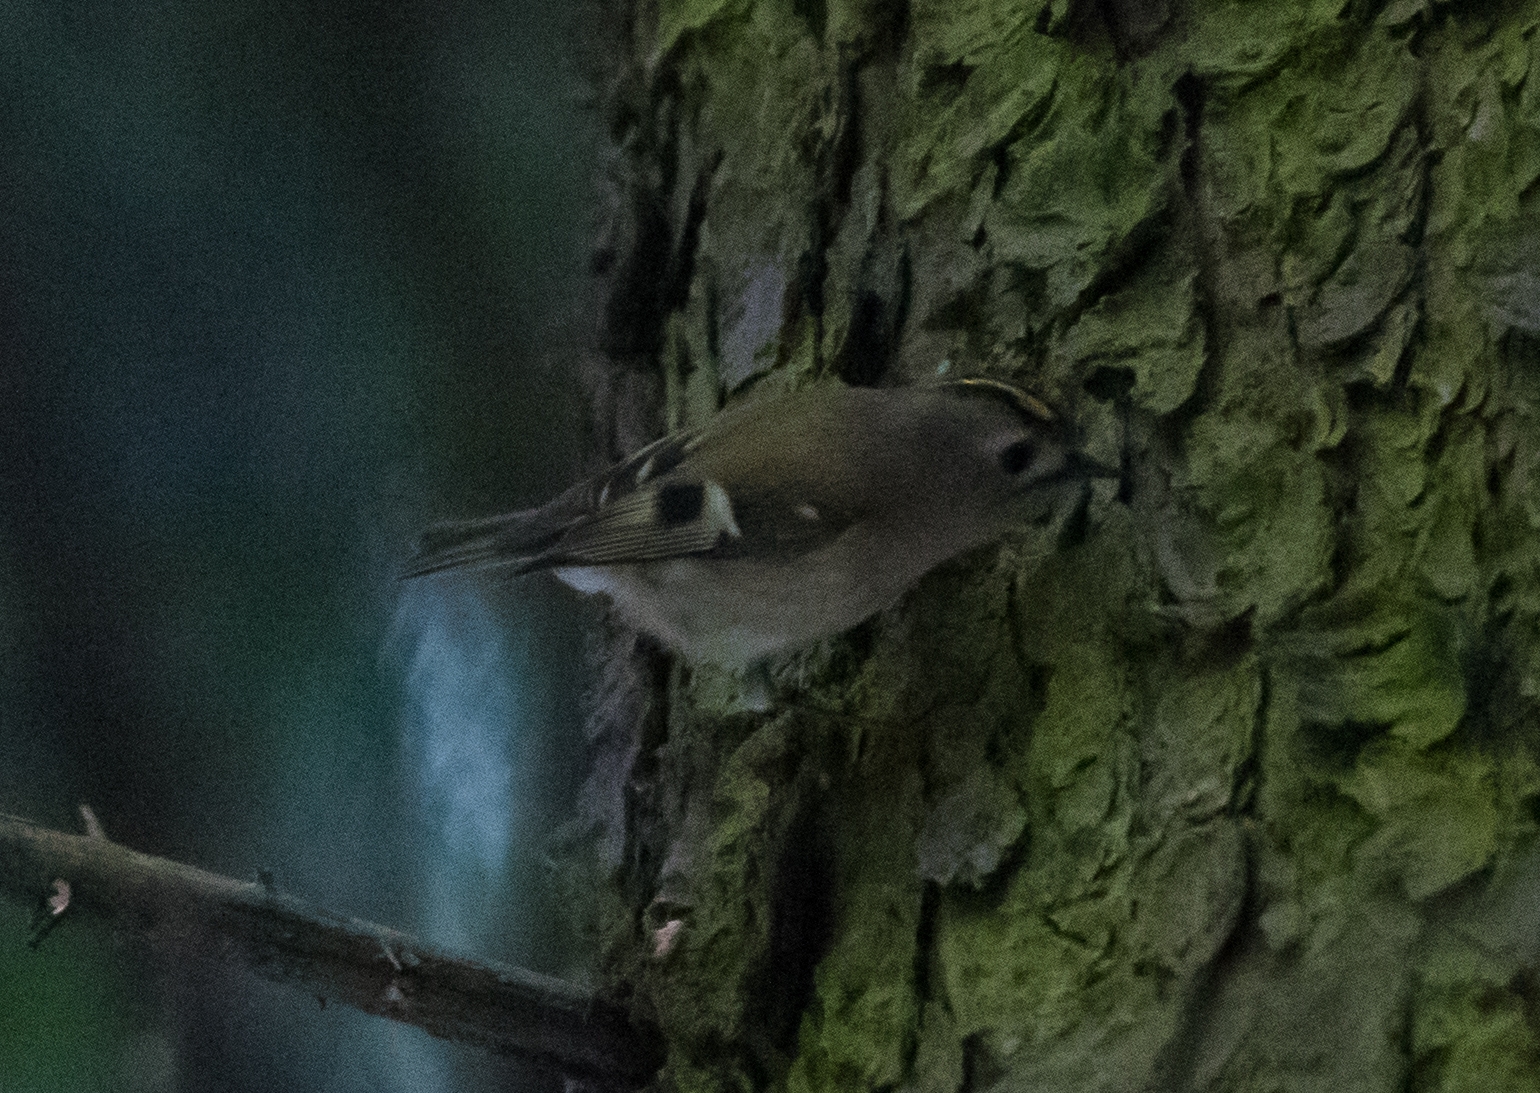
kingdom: Animalia
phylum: Chordata
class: Aves
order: Passeriformes
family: Regulidae
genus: Regulus
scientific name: Regulus regulus
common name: Goldcrest
